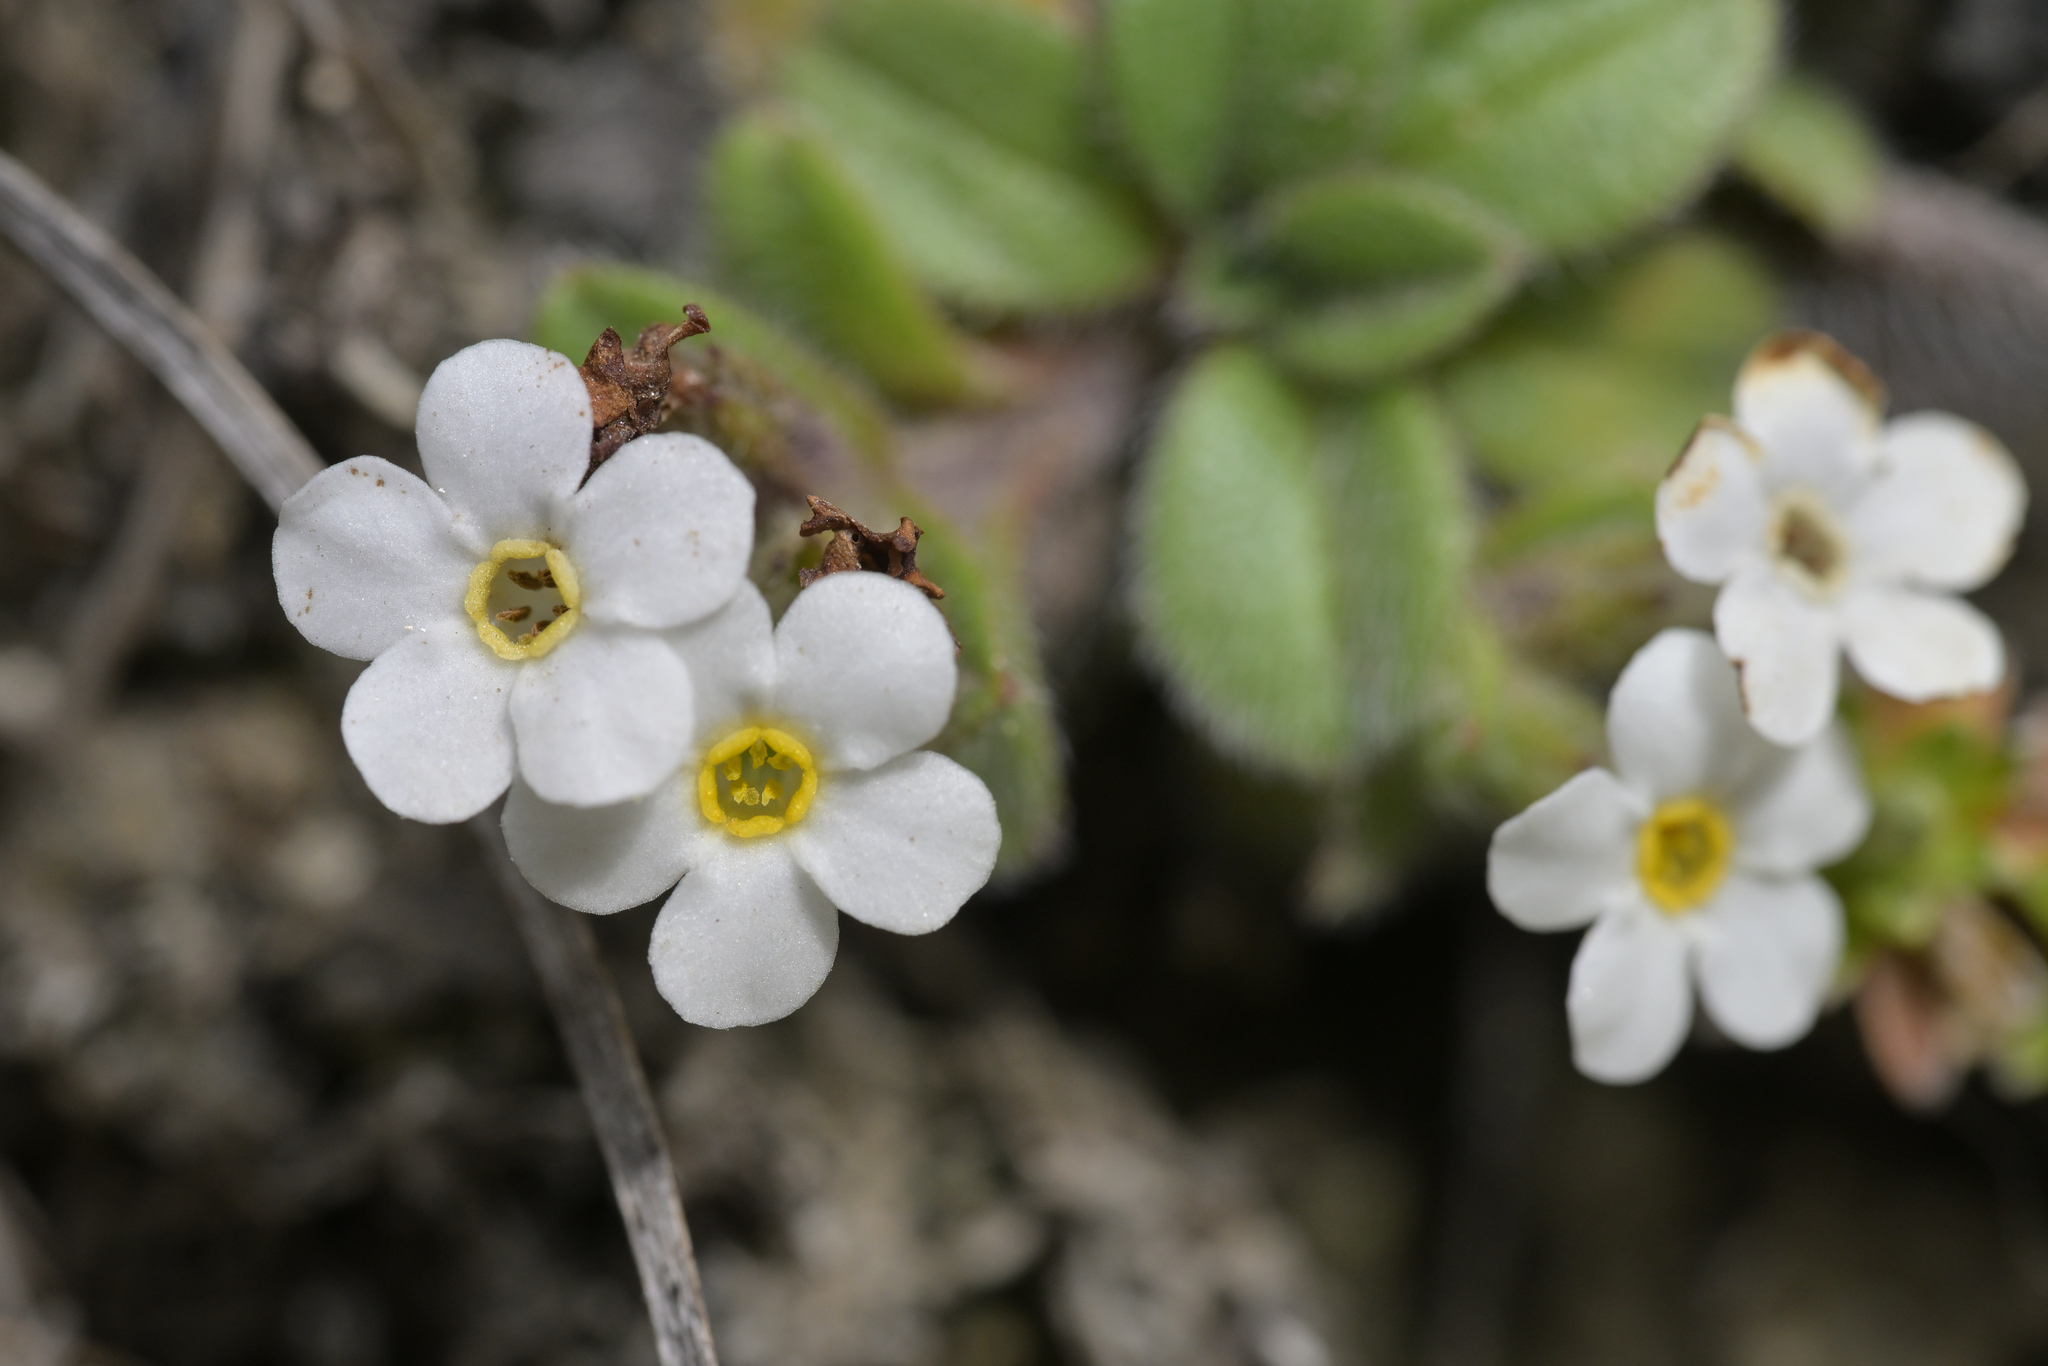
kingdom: Plantae
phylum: Tracheophyta
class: Magnoliopsida
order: Boraginales
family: Boraginaceae
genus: Myosotis
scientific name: Myosotis lyallii
